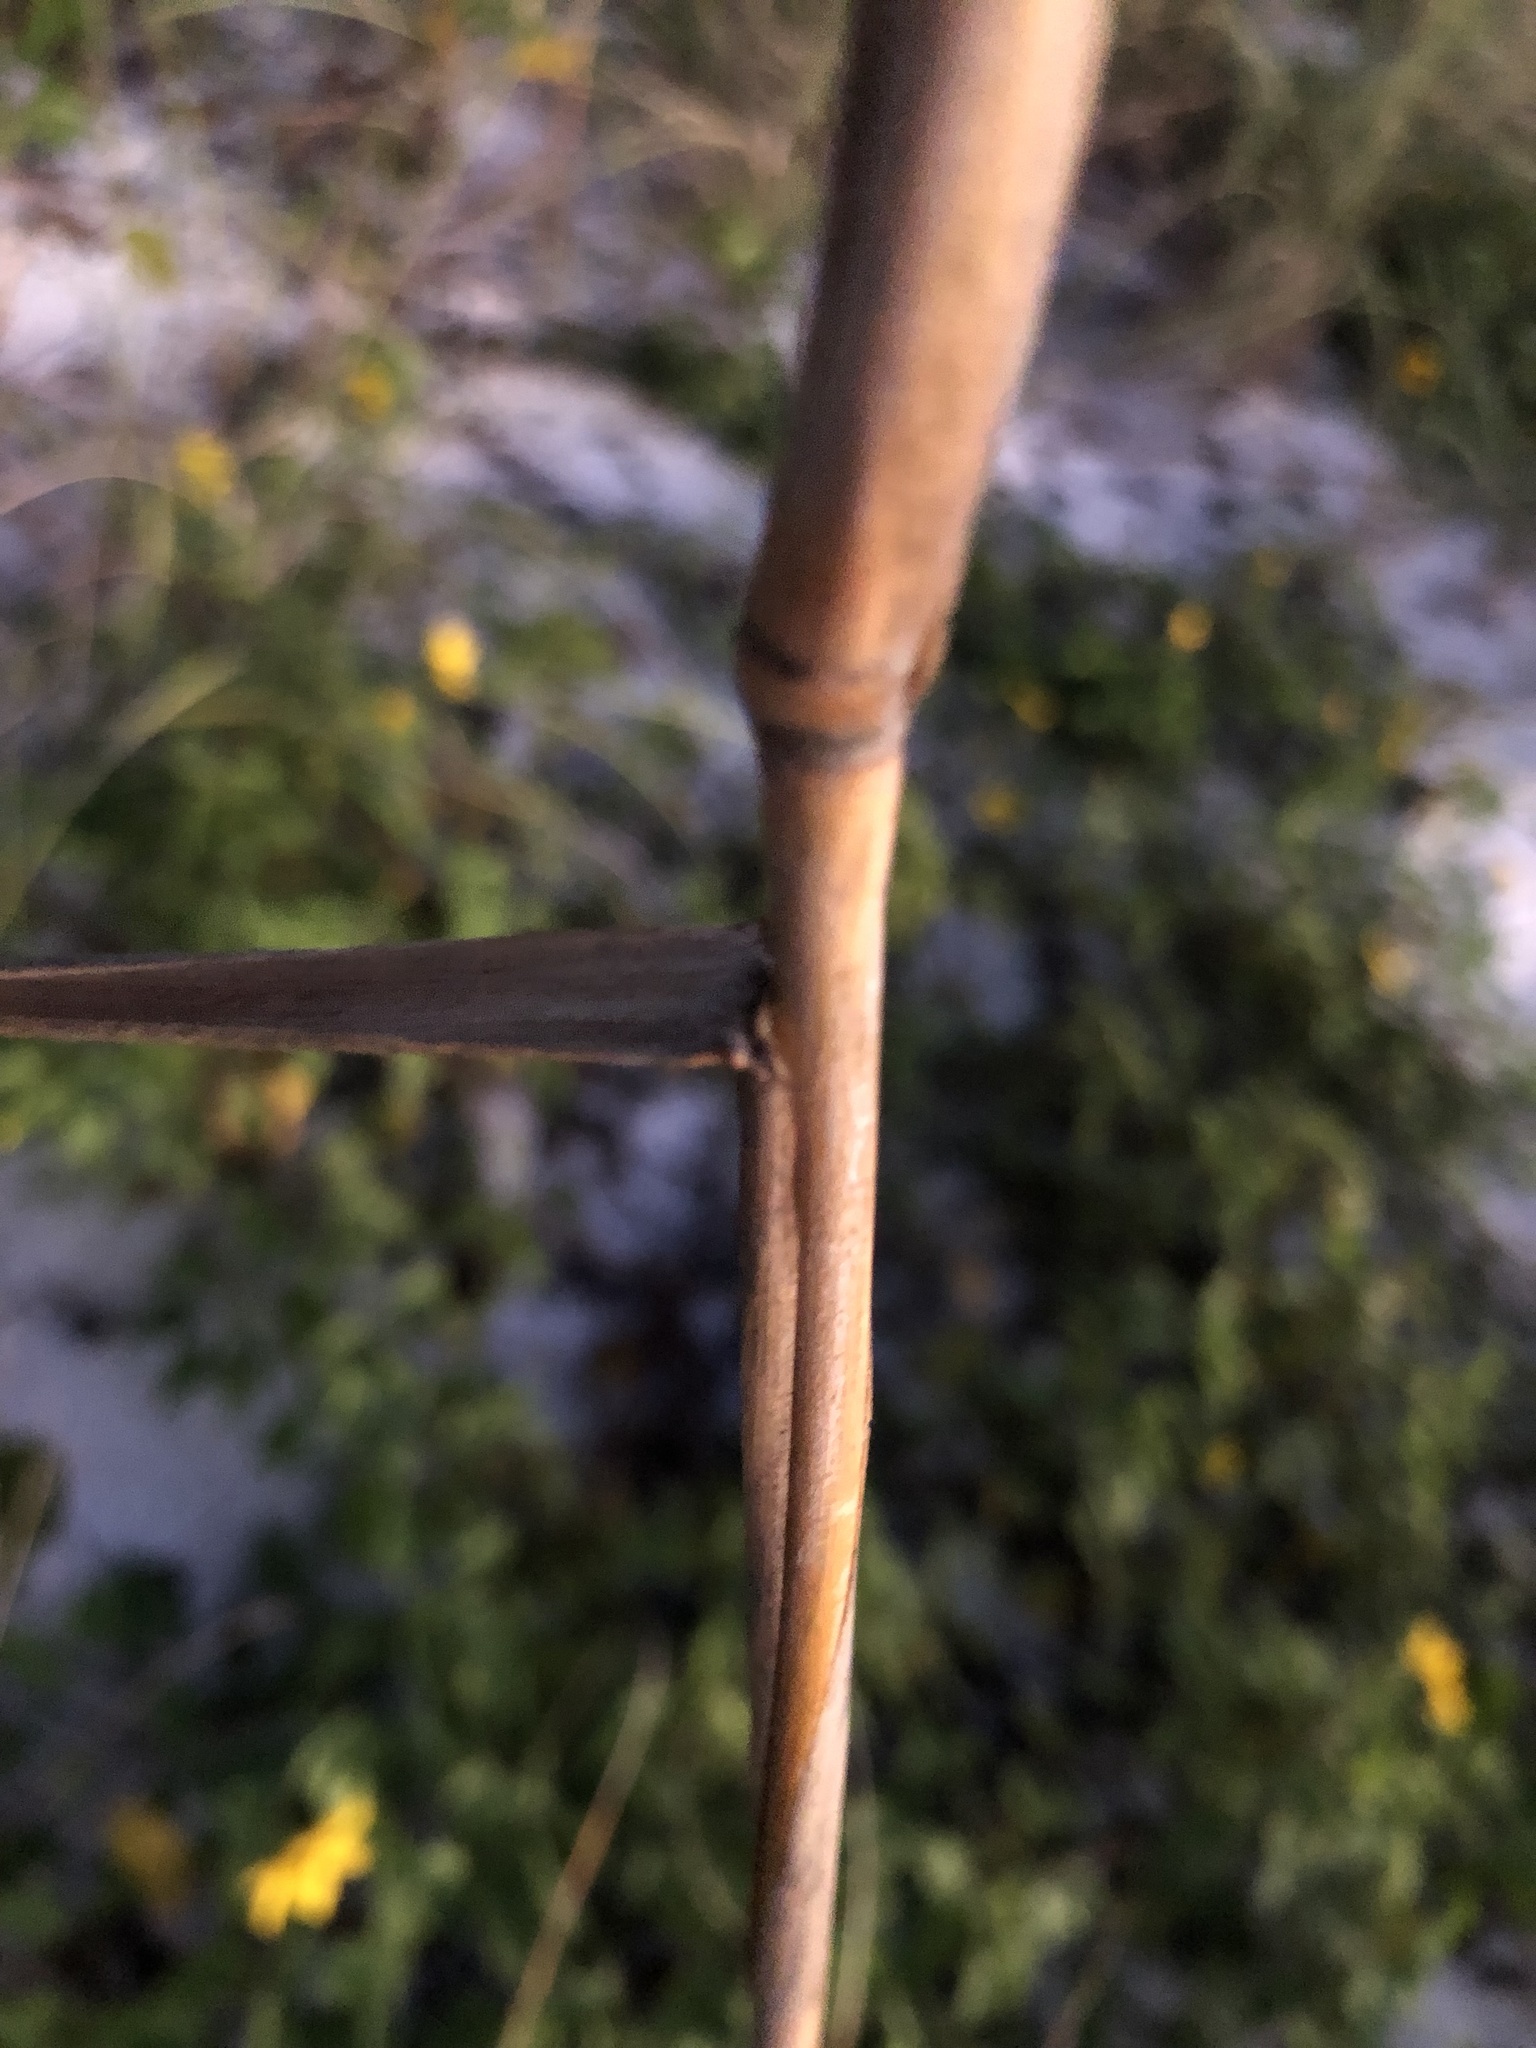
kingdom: Plantae
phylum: Tracheophyta
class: Liliopsida
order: Poales
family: Poaceae
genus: Uniola
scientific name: Uniola paniculata
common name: Seaside-oats
